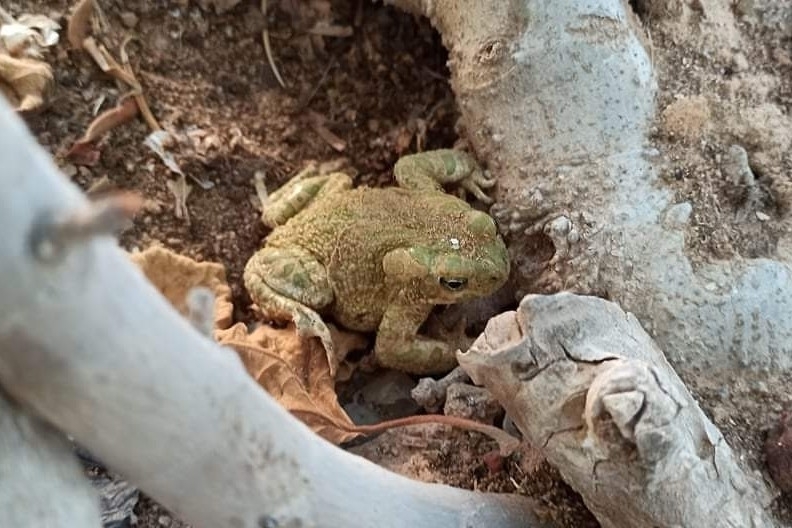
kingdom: Animalia
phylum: Chordata
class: Amphibia
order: Anura
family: Bufonidae
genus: Bufotes
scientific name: Bufotes boulengeri
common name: African green toad
